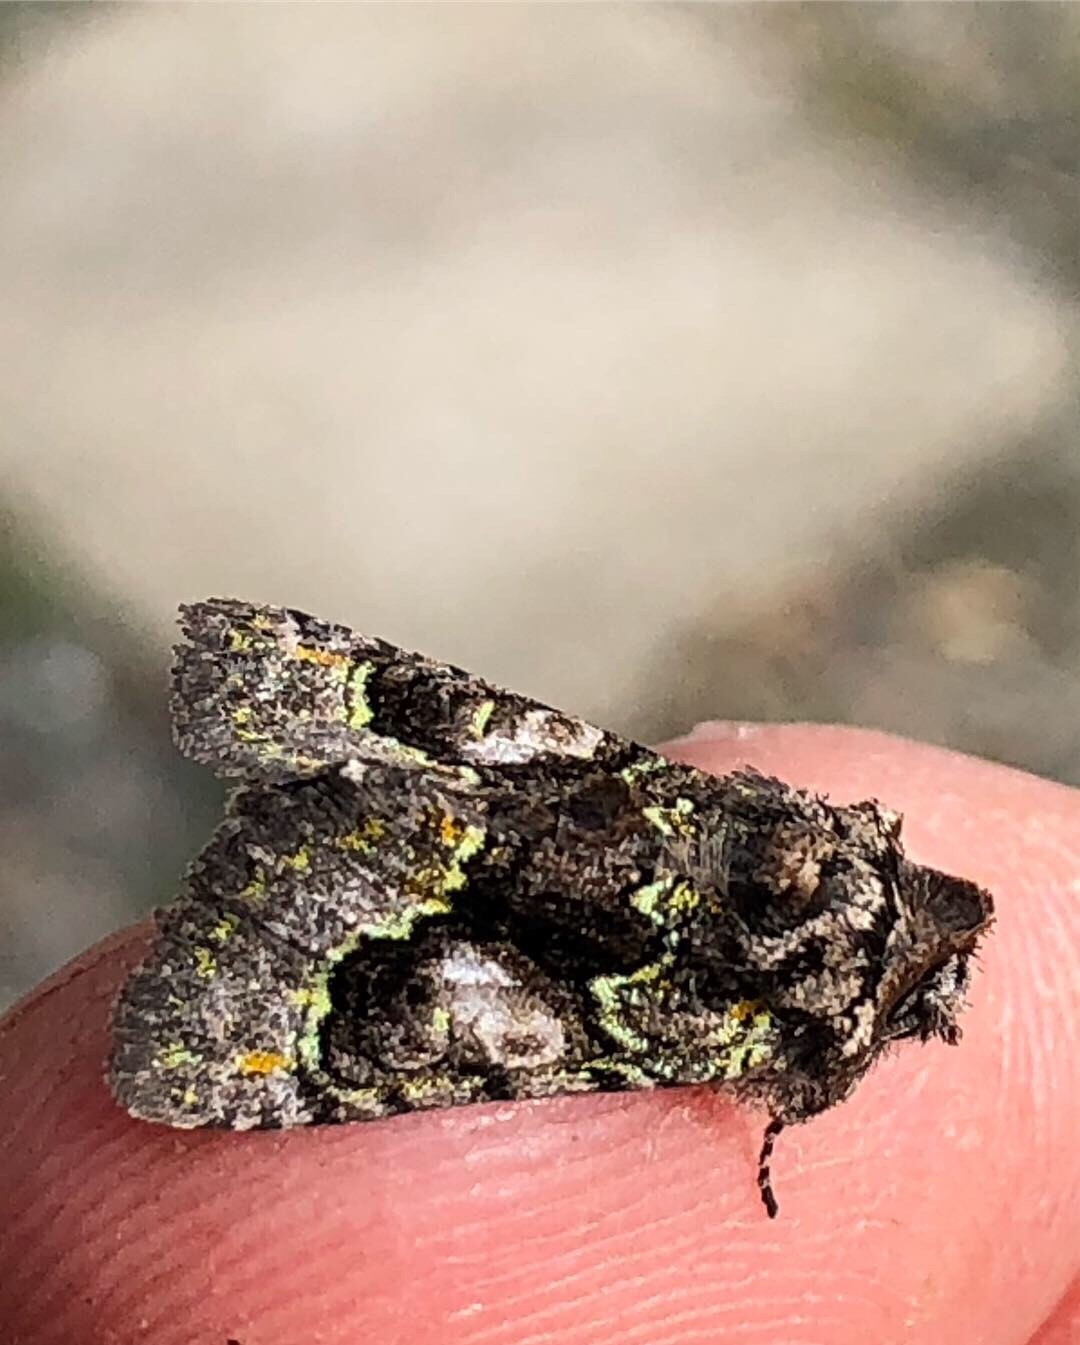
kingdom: Animalia
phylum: Arthropoda
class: Insecta
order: Lepidoptera
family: Noctuidae
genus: Behrensia
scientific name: Behrensia conchiformis
